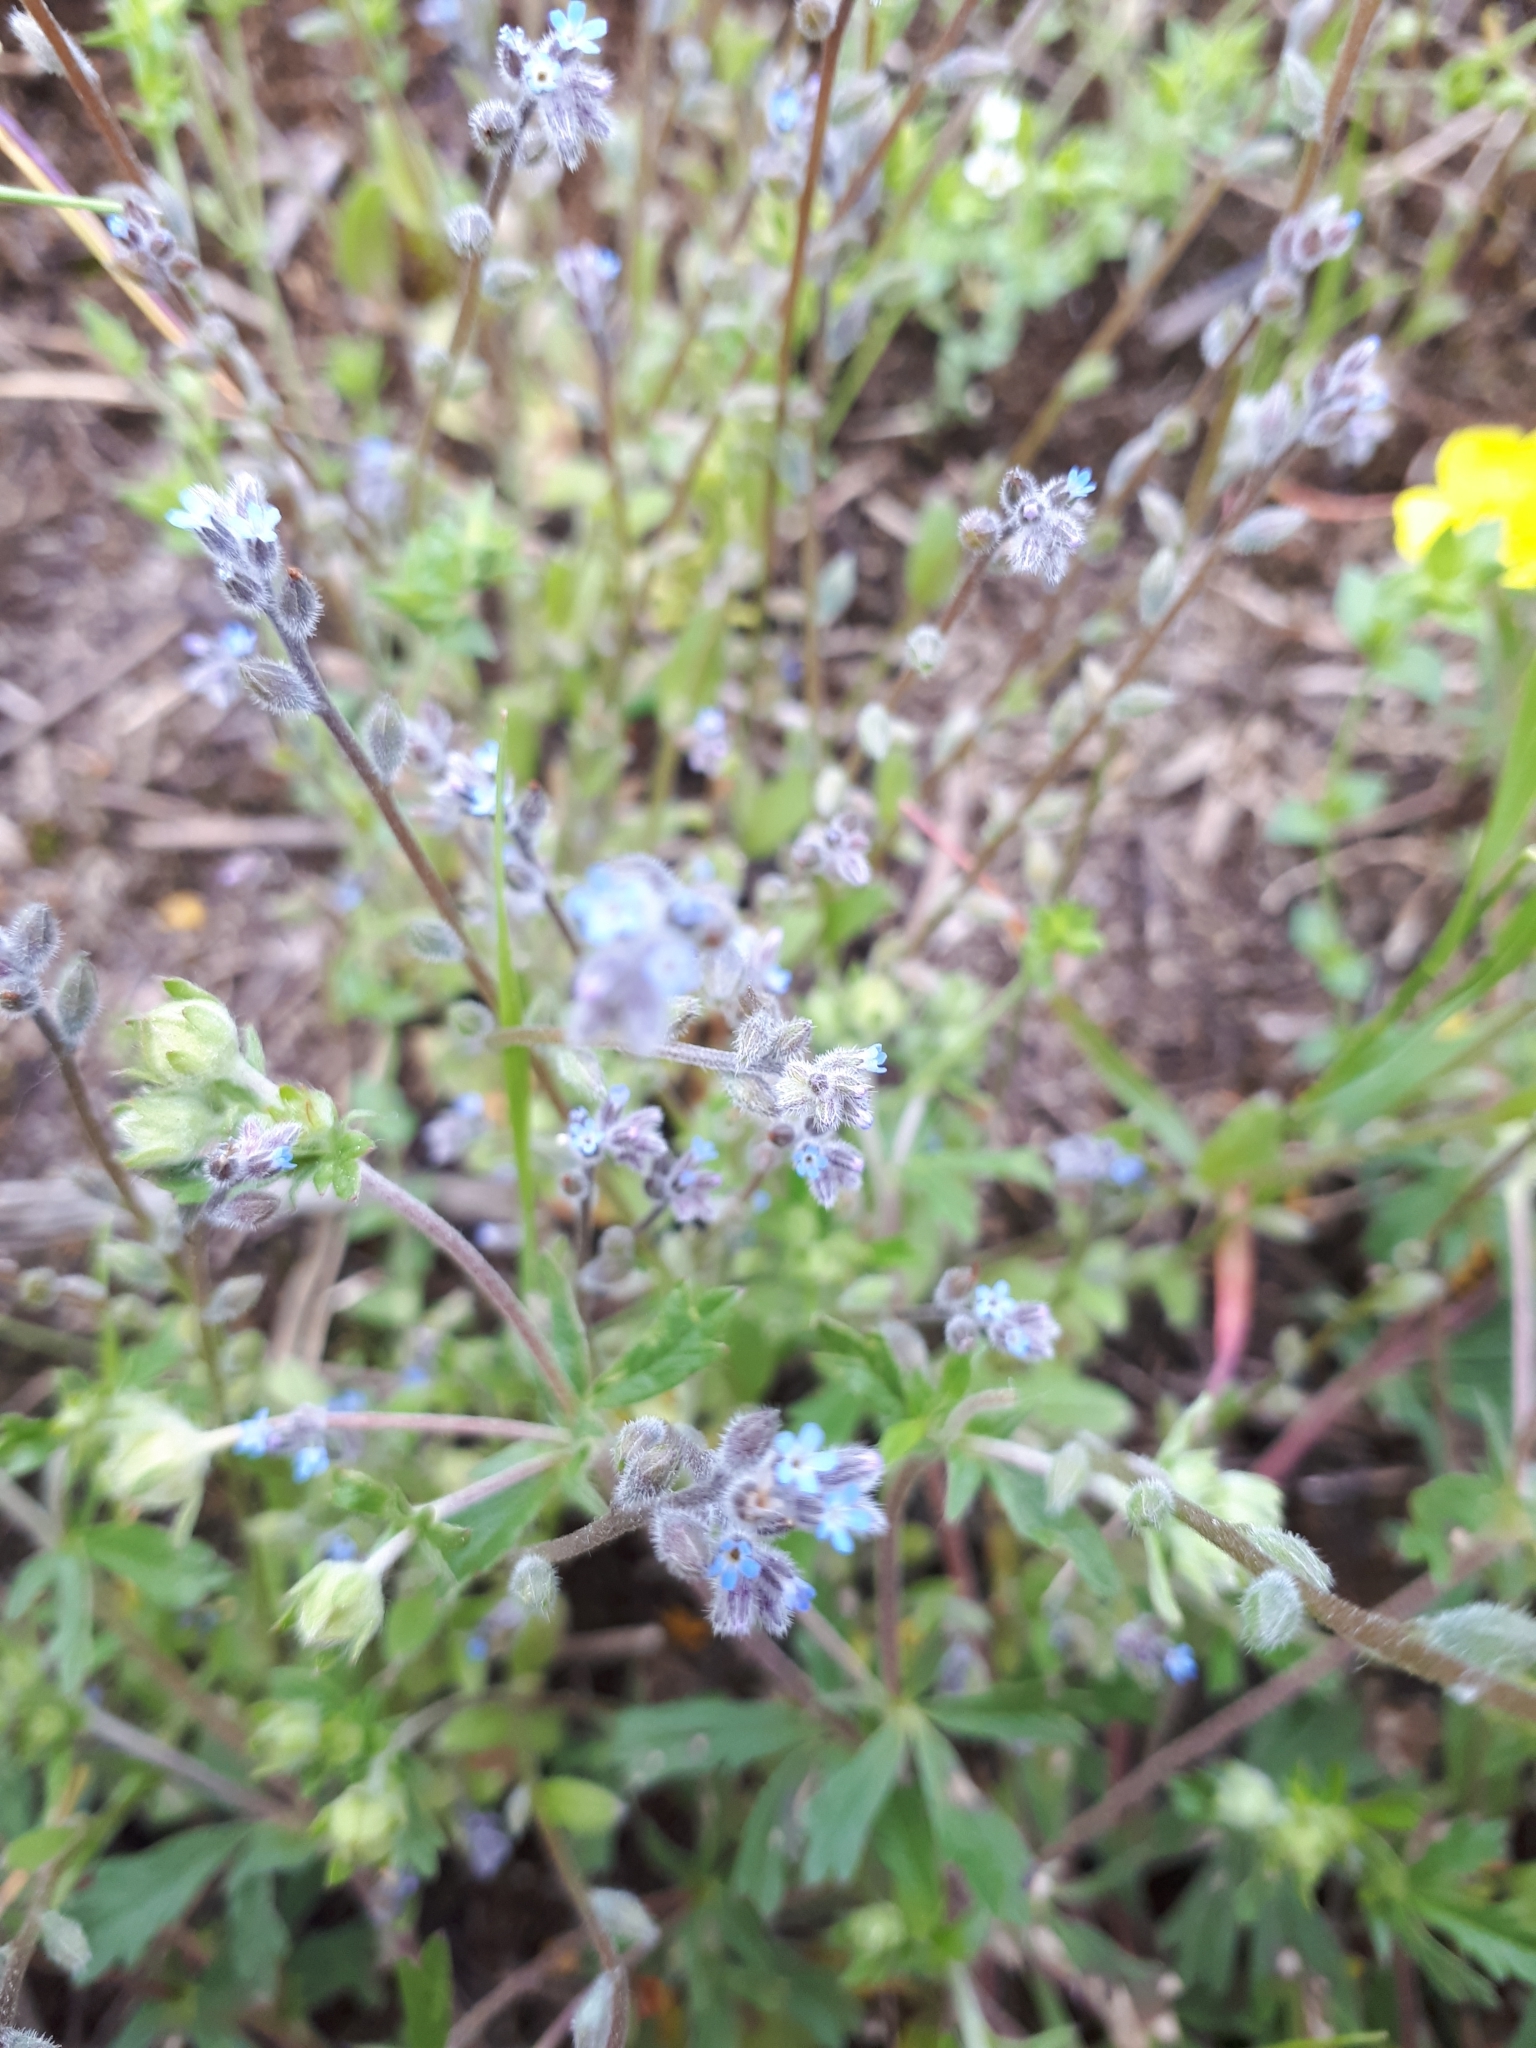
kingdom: Plantae
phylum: Tracheophyta
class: Magnoliopsida
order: Boraginales
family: Boraginaceae
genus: Myosotis
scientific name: Myosotis stricta
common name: Strict forget-me-not
